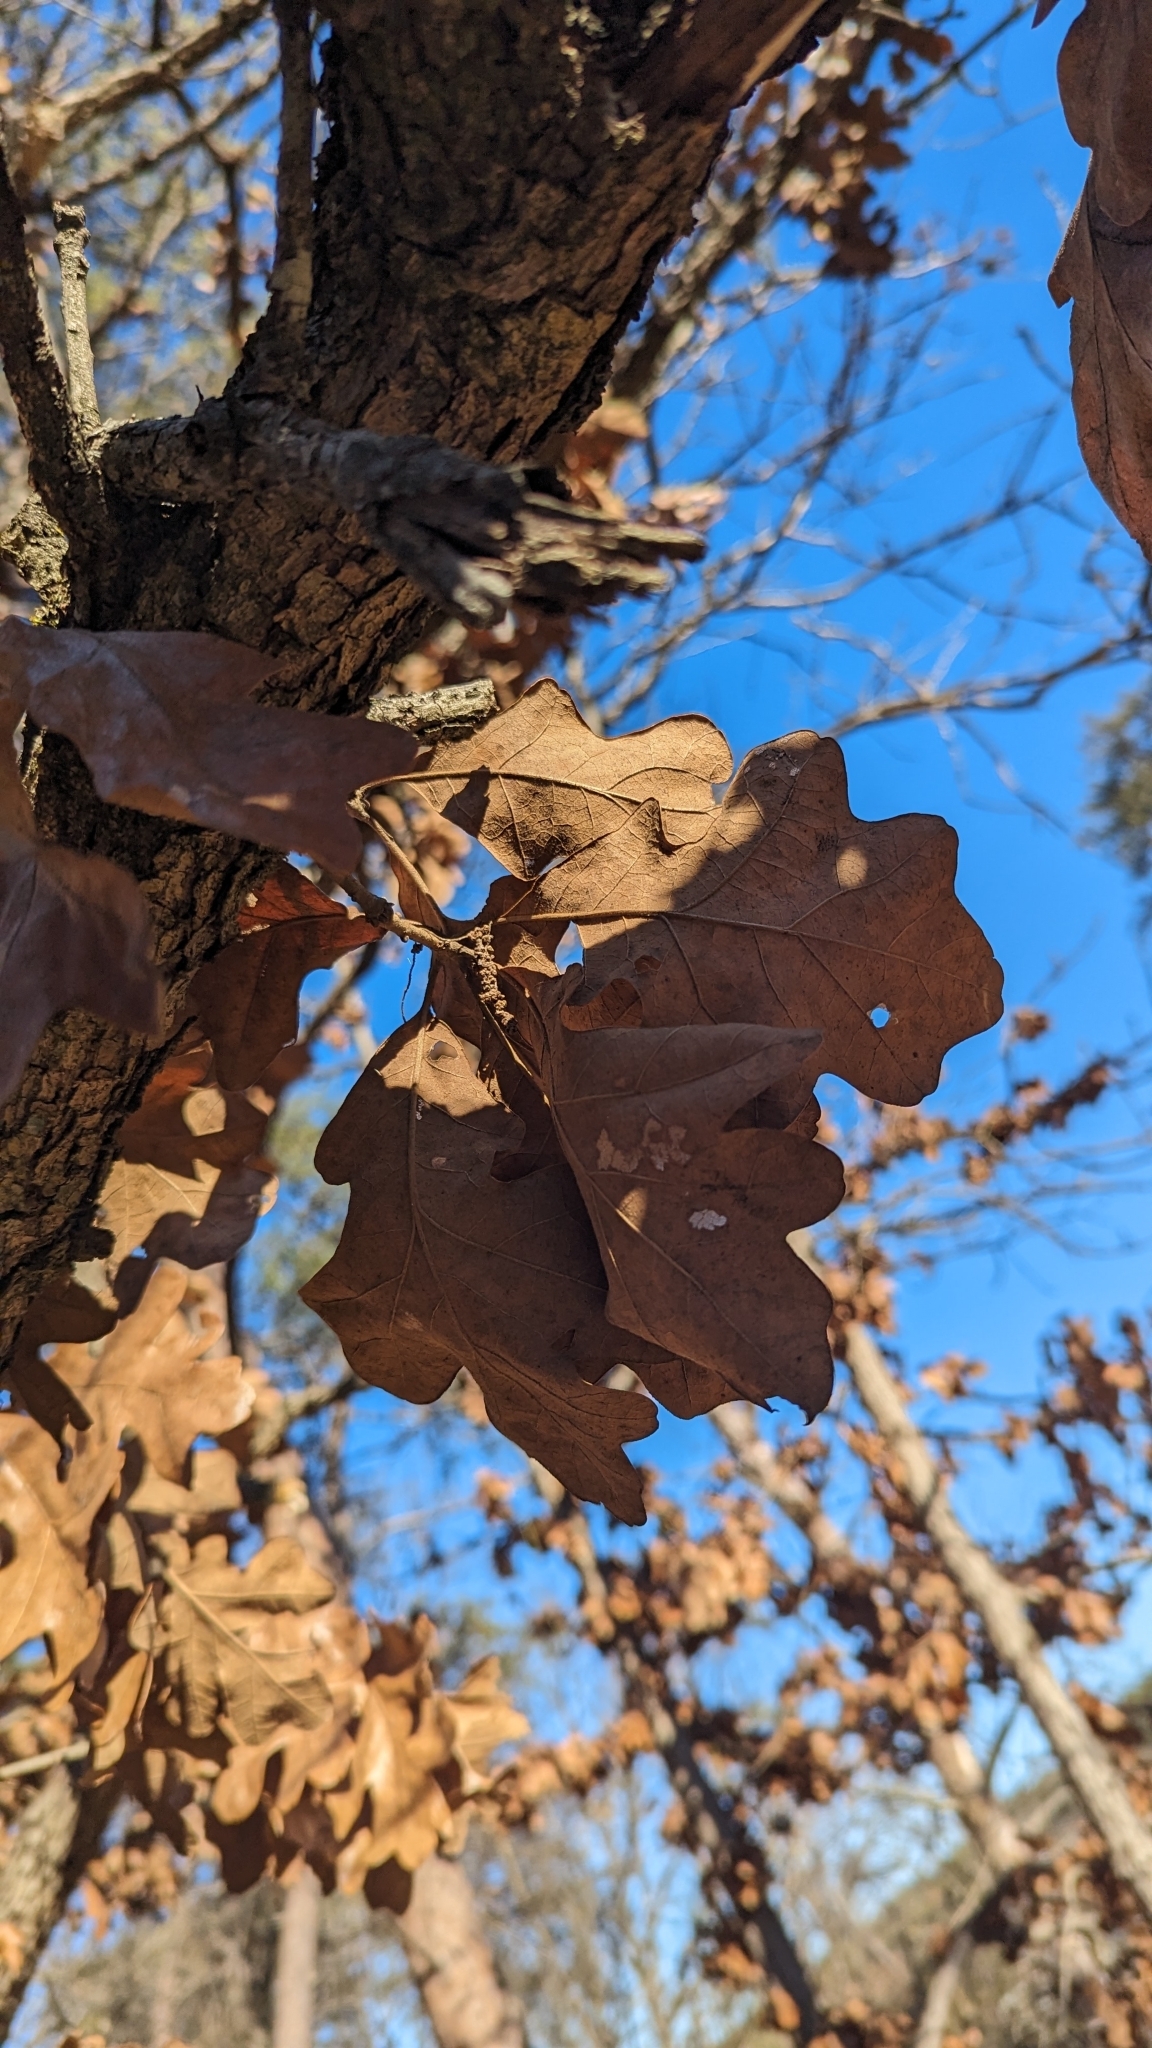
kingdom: Plantae
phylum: Tracheophyta
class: Magnoliopsida
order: Fagales
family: Fagaceae
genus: Quercus
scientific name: Quercus stellata
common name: Post oak
